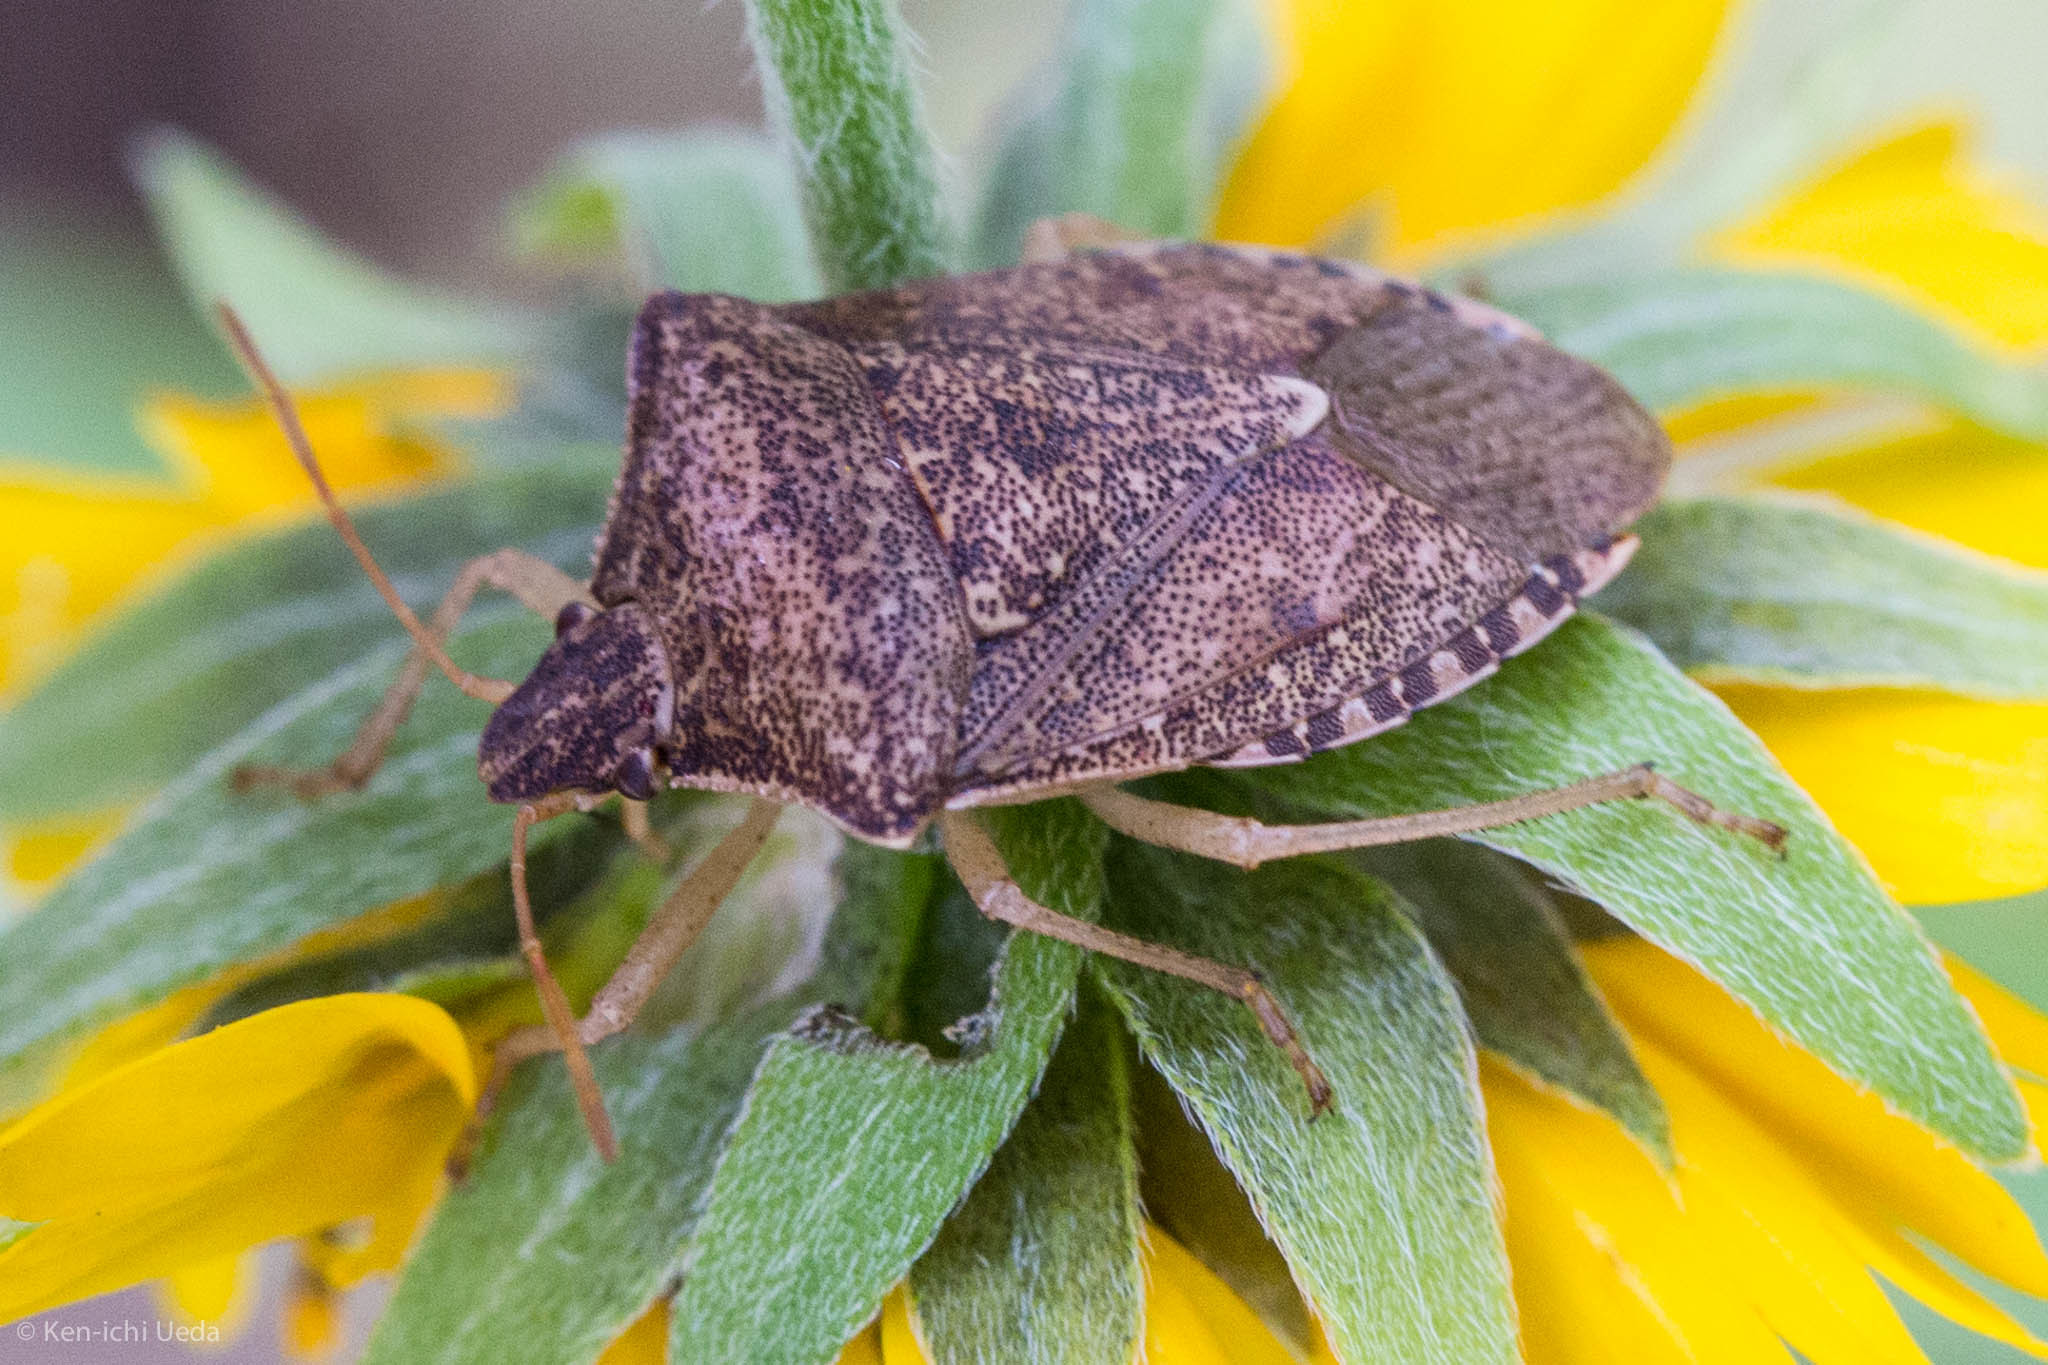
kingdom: Animalia
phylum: Arthropoda
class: Insecta
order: Hemiptera
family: Pentatomidae
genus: Euschistus
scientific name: Euschistus servus
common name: Brown stink bug
